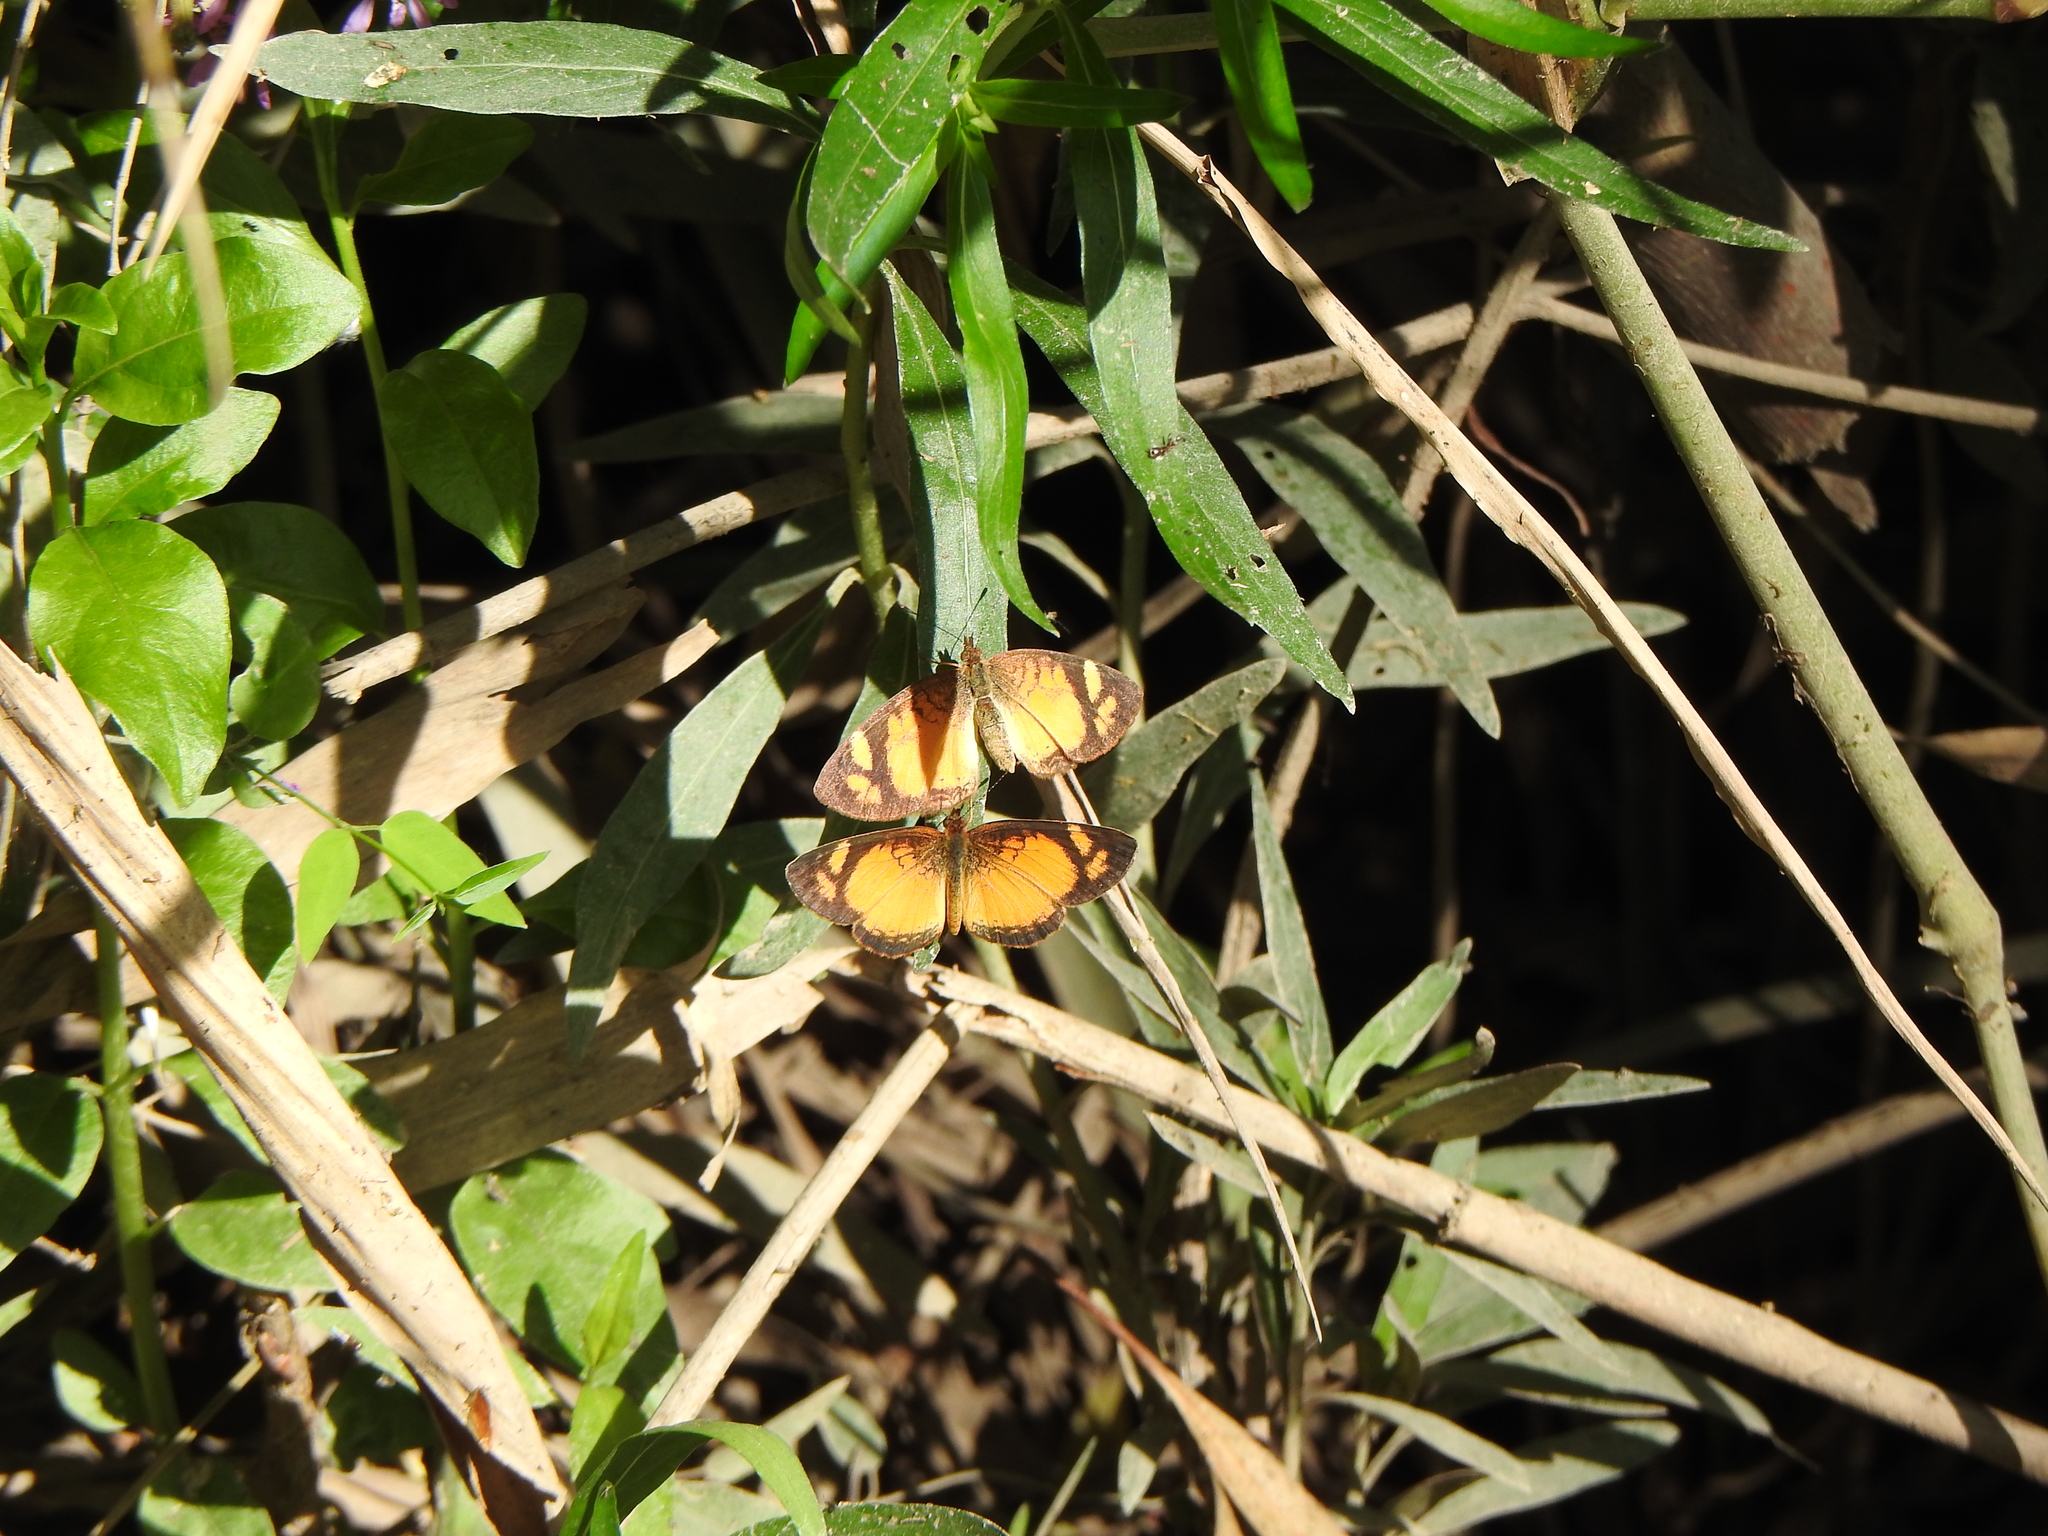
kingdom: Animalia
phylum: Arthropoda
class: Insecta
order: Lepidoptera
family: Nymphalidae
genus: Tegosa
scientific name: Tegosa claudina
